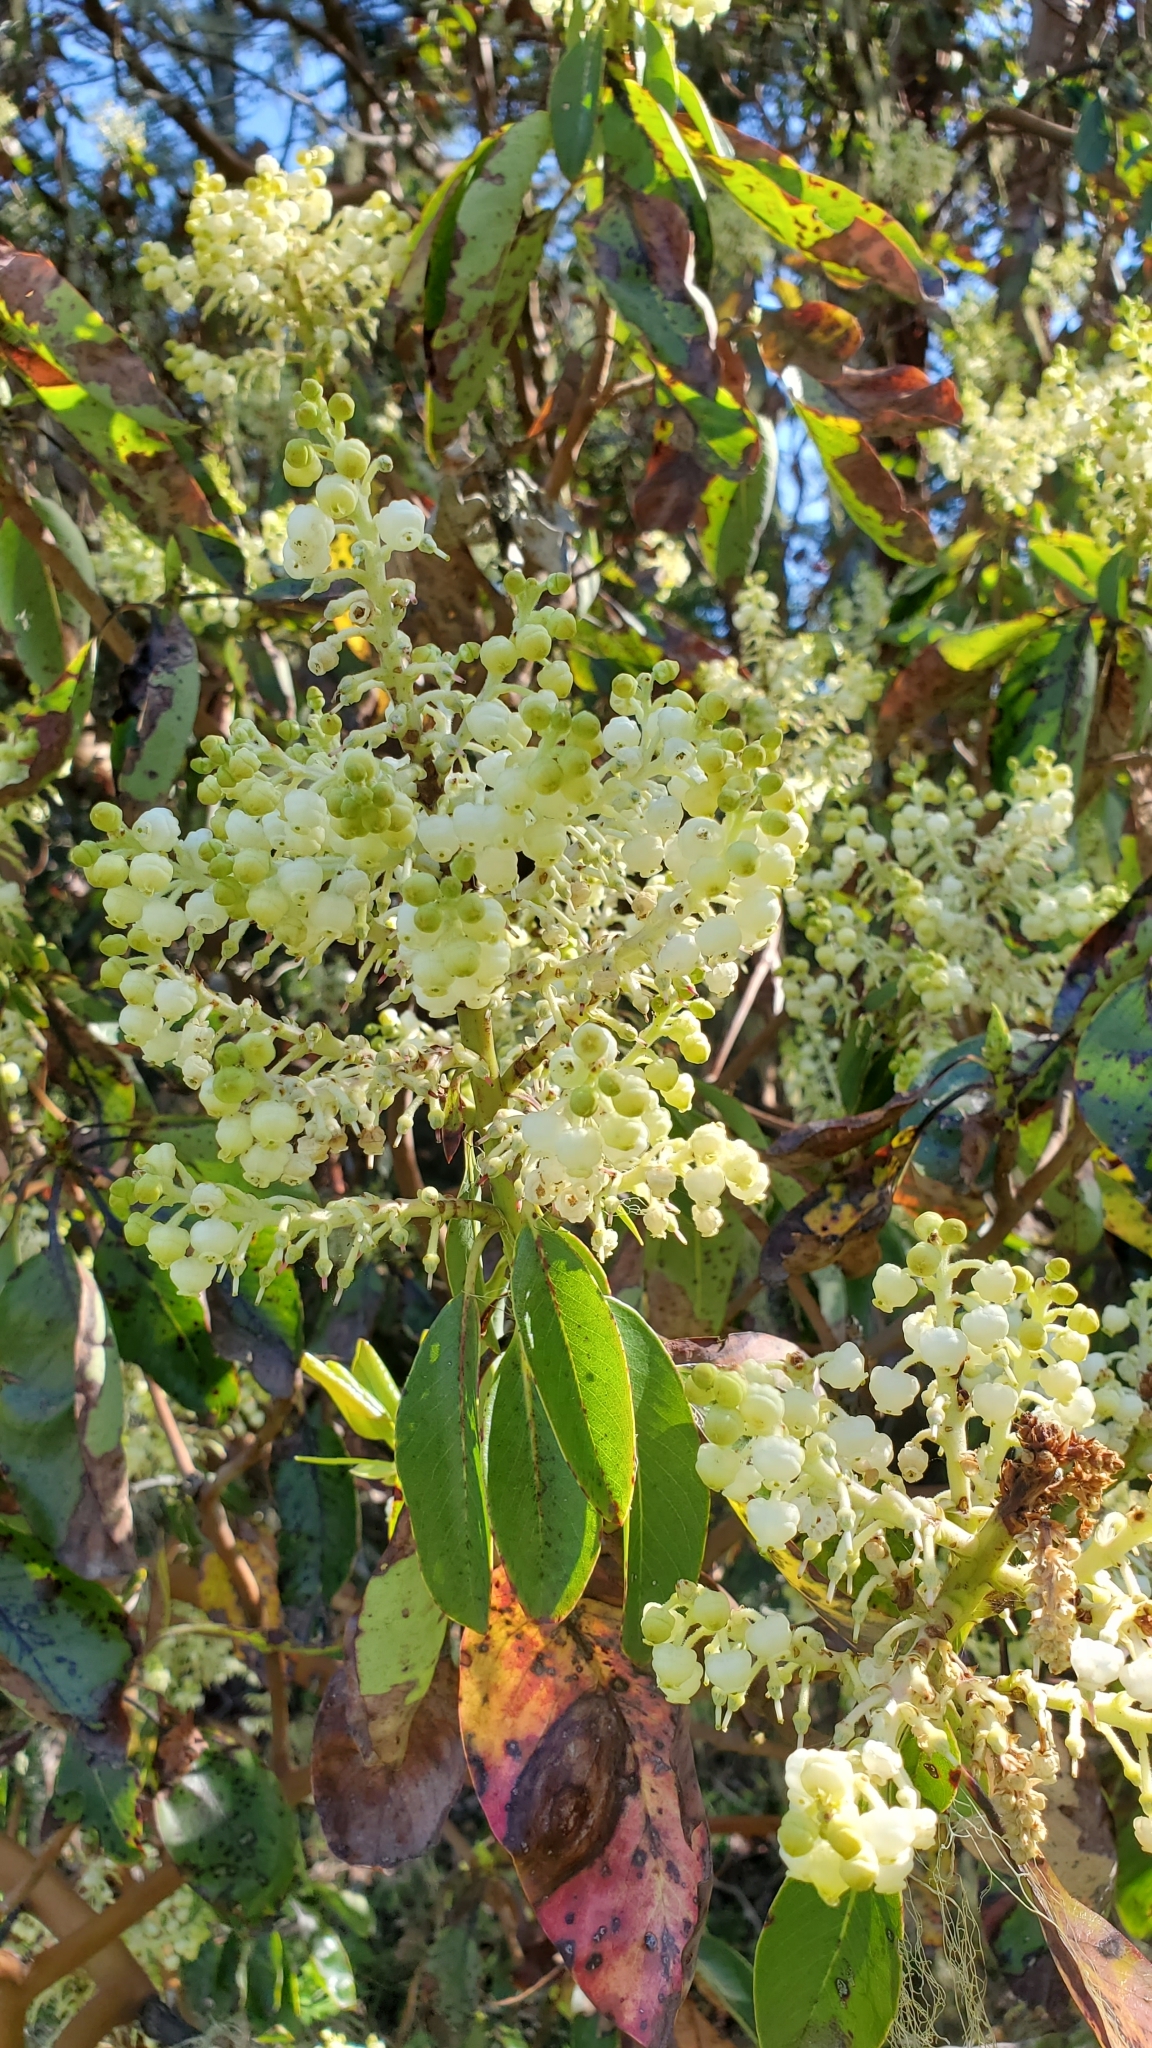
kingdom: Plantae
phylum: Tracheophyta
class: Magnoliopsida
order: Ericales
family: Ericaceae
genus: Arbutus
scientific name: Arbutus menziesii
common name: Pacific madrone
